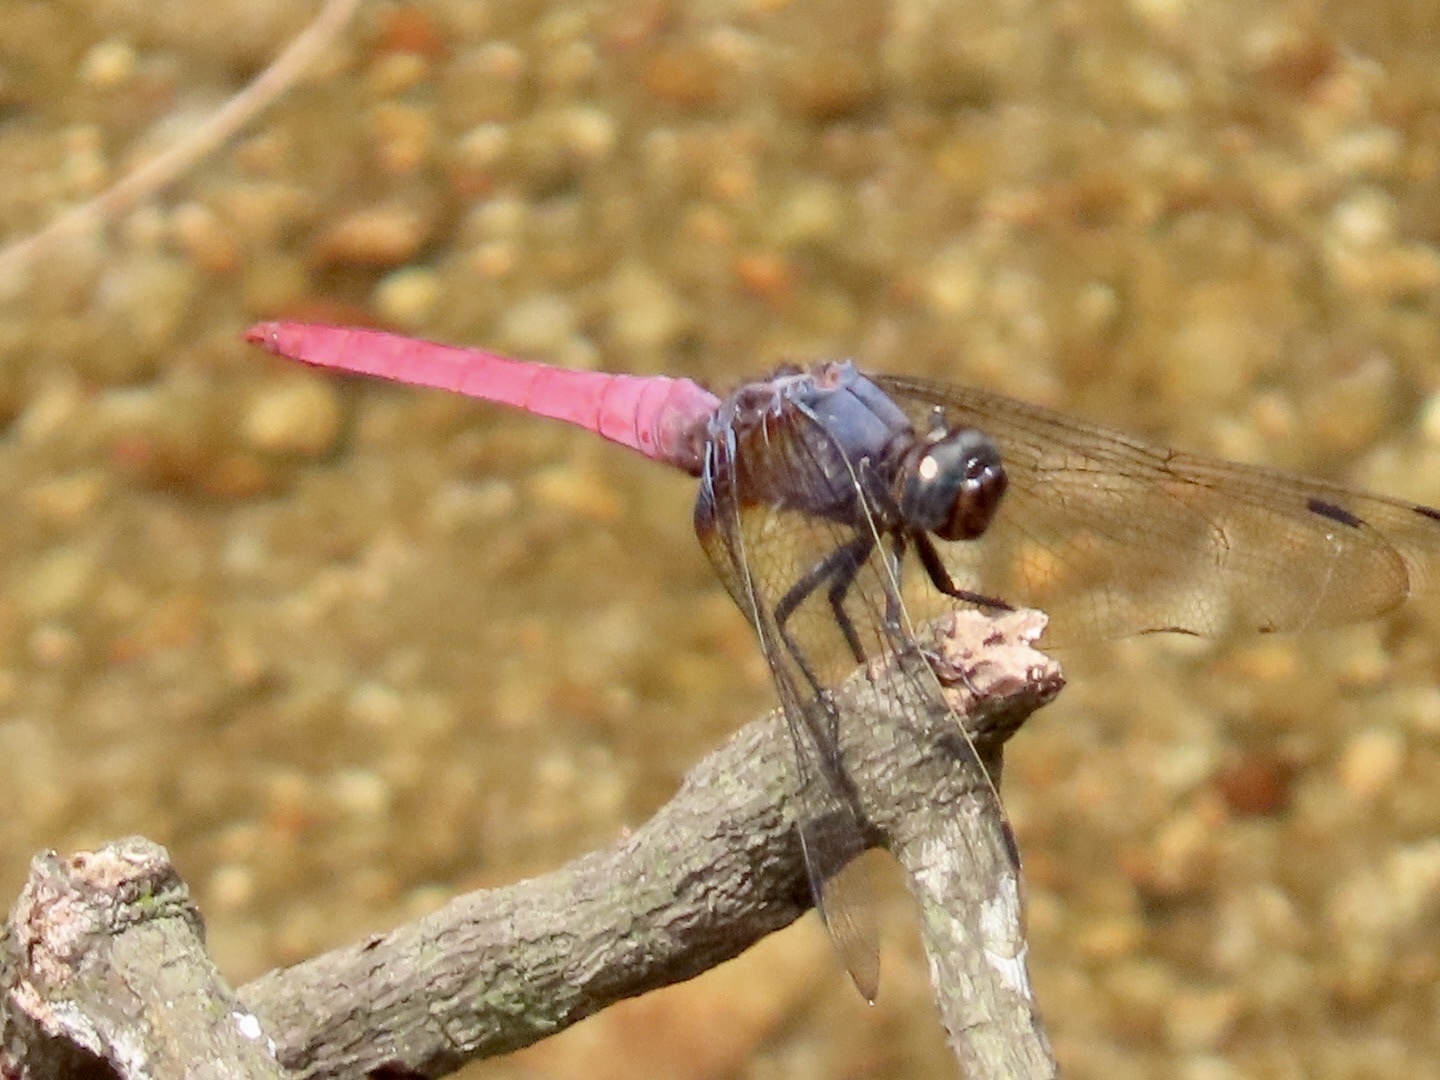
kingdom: Animalia
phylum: Arthropoda
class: Insecta
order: Odonata
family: Libellulidae
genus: Orthetrum
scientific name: Orthetrum pruinosum
